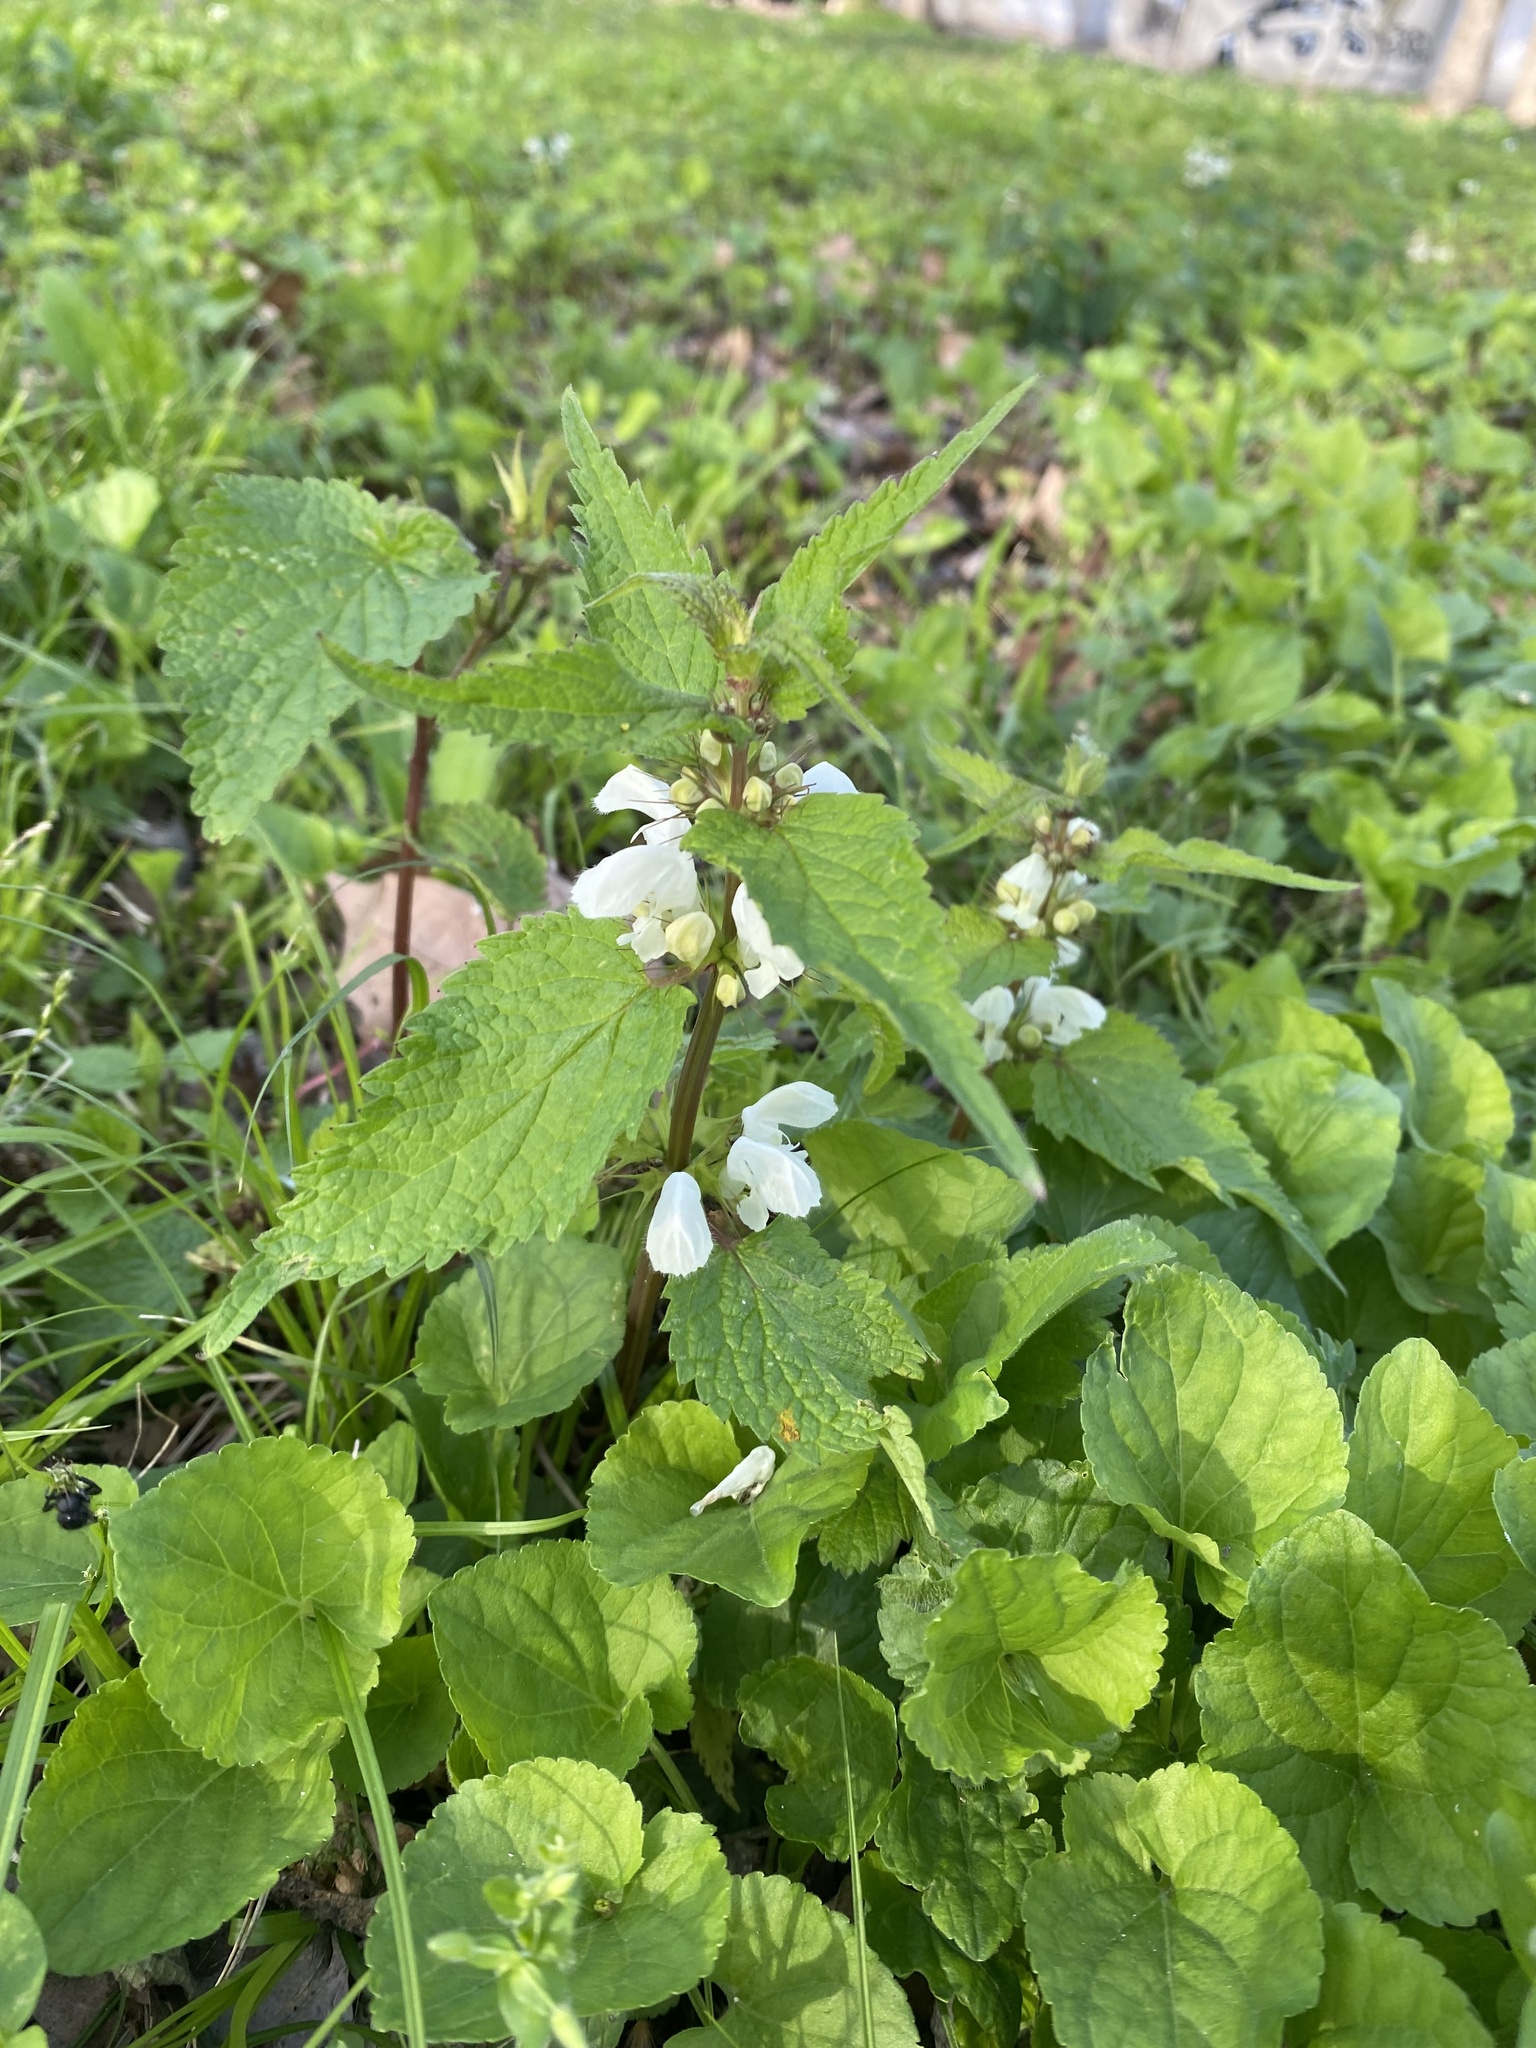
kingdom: Plantae
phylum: Tracheophyta
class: Magnoliopsida
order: Lamiales
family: Lamiaceae
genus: Lamium
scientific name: Lamium album
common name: White dead-nettle
